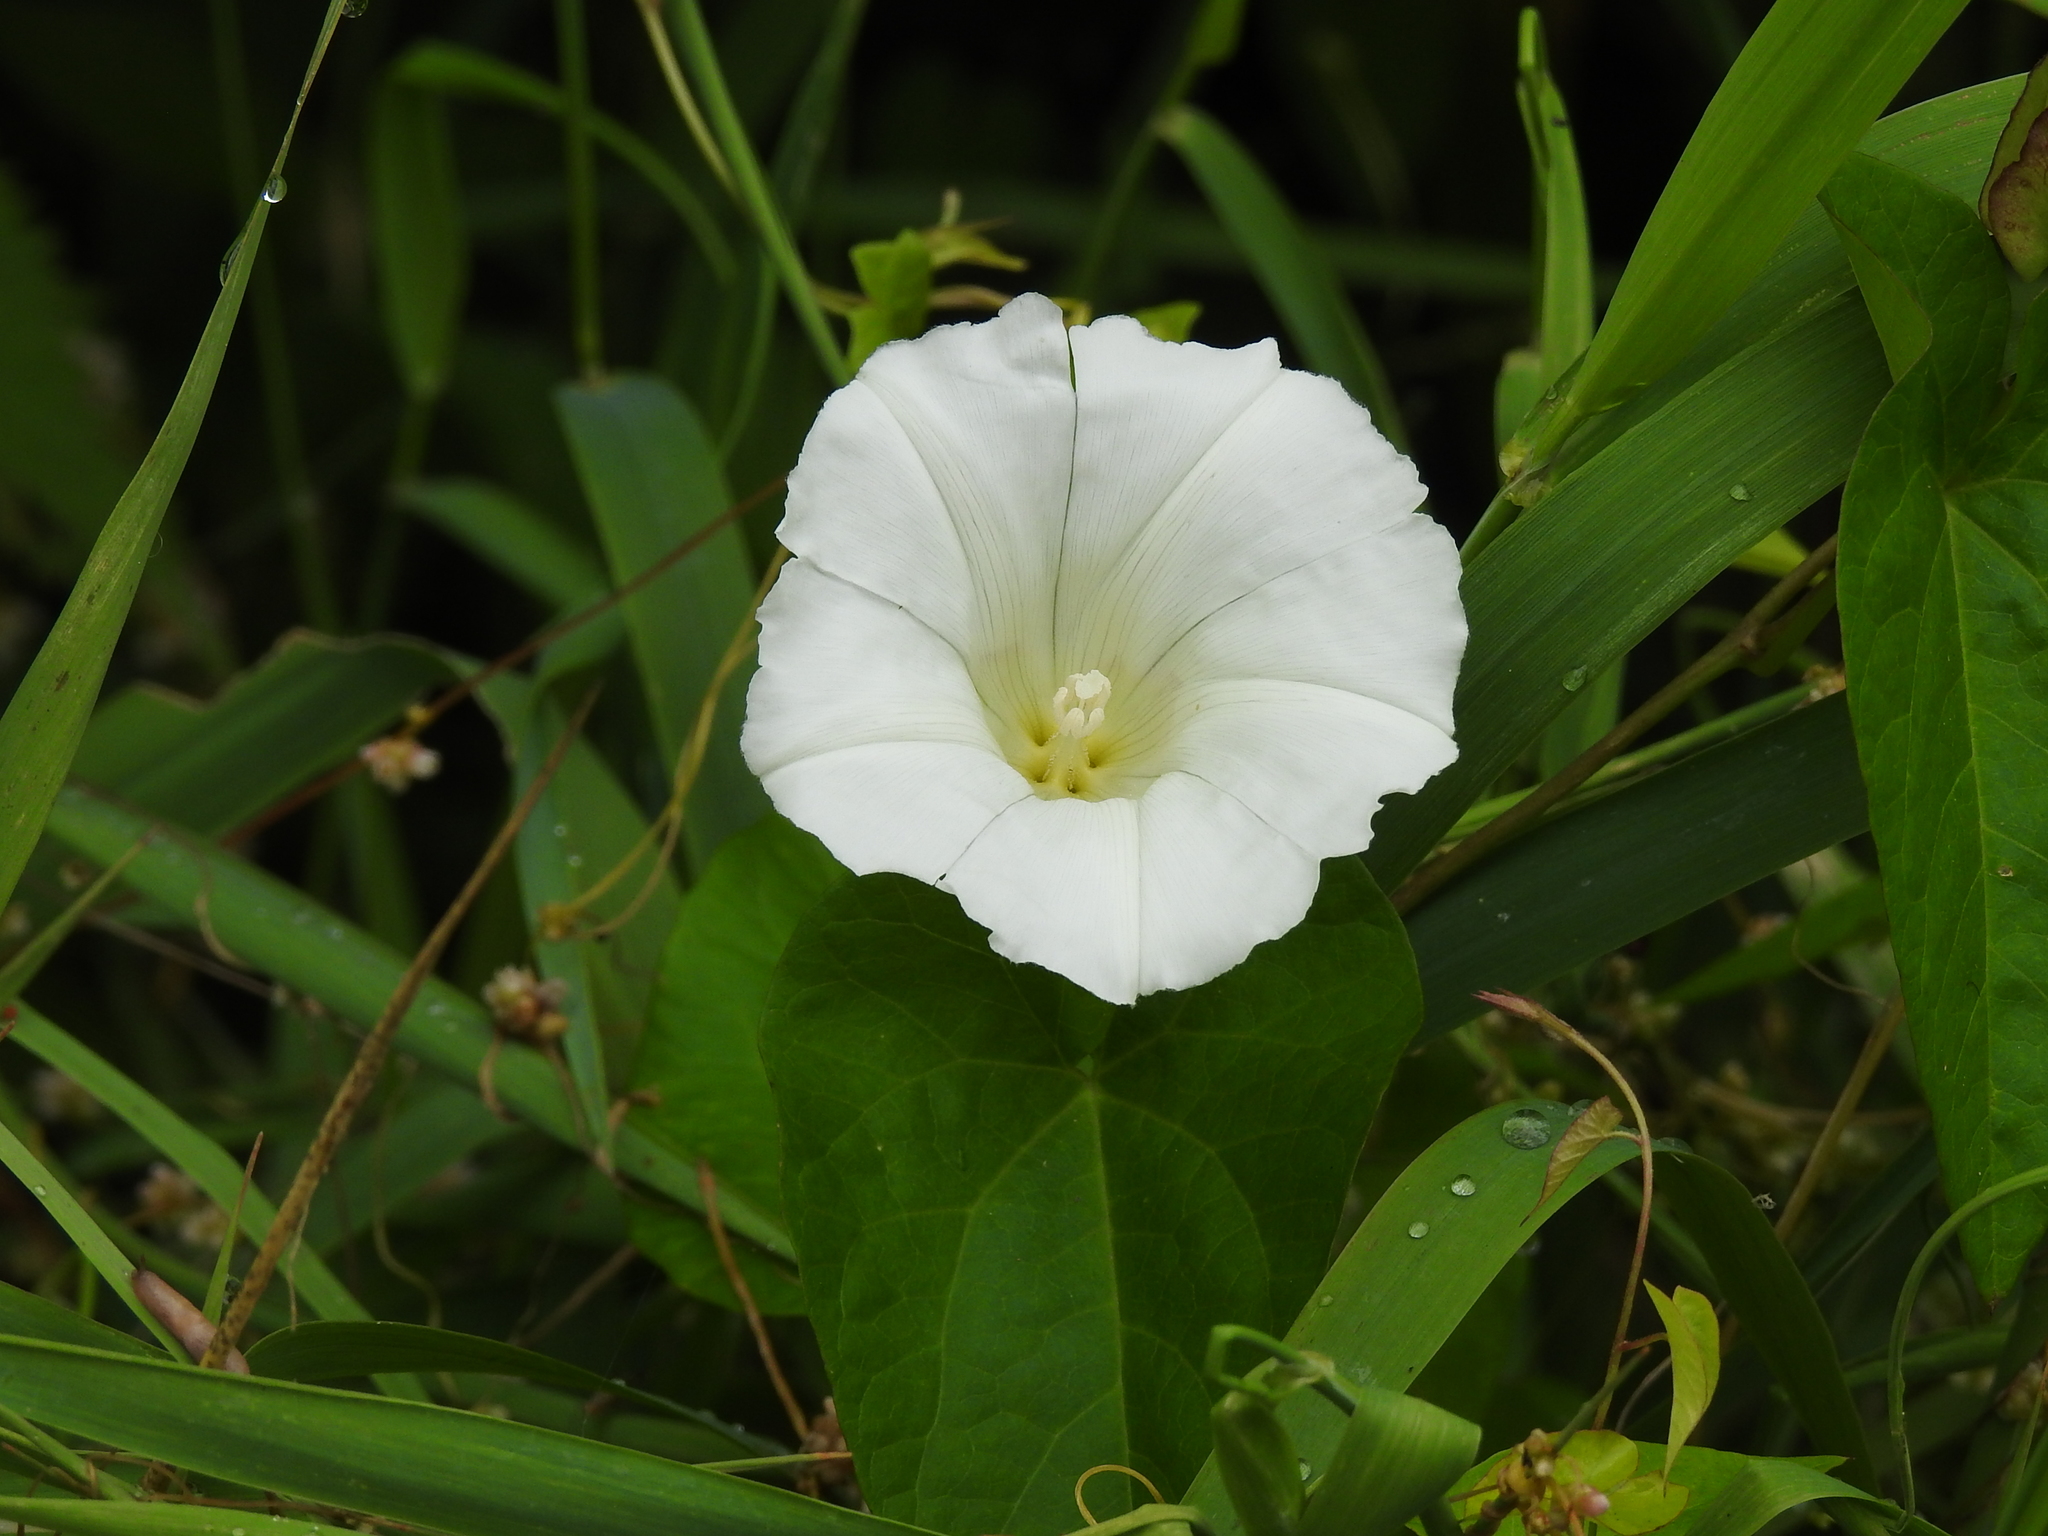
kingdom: Plantae
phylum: Tracheophyta
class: Magnoliopsida
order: Solanales
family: Convolvulaceae
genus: Calystegia
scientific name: Calystegia sepium
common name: Hedge bindweed
